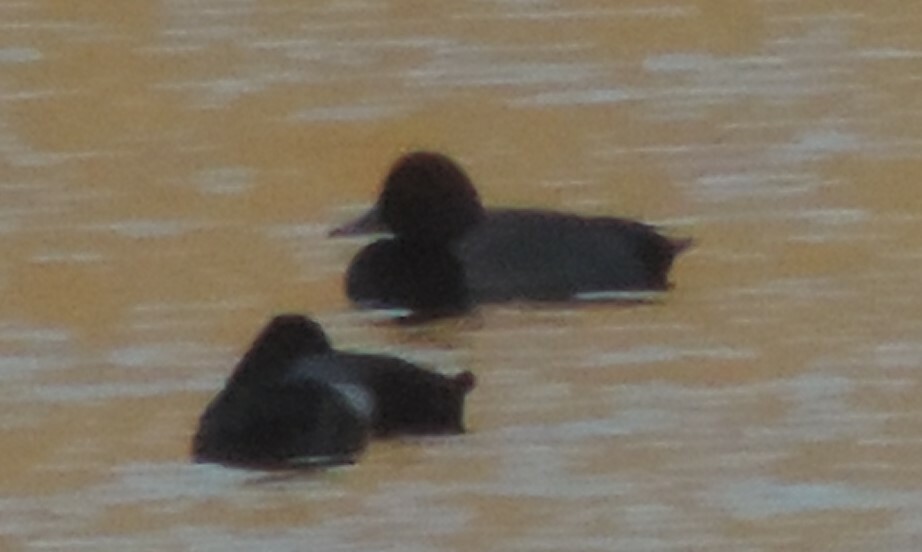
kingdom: Animalia
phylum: Chordata
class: Aves
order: Anseriformes
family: Anatidae
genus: Aythya
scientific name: Aythya americana
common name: Redhead
